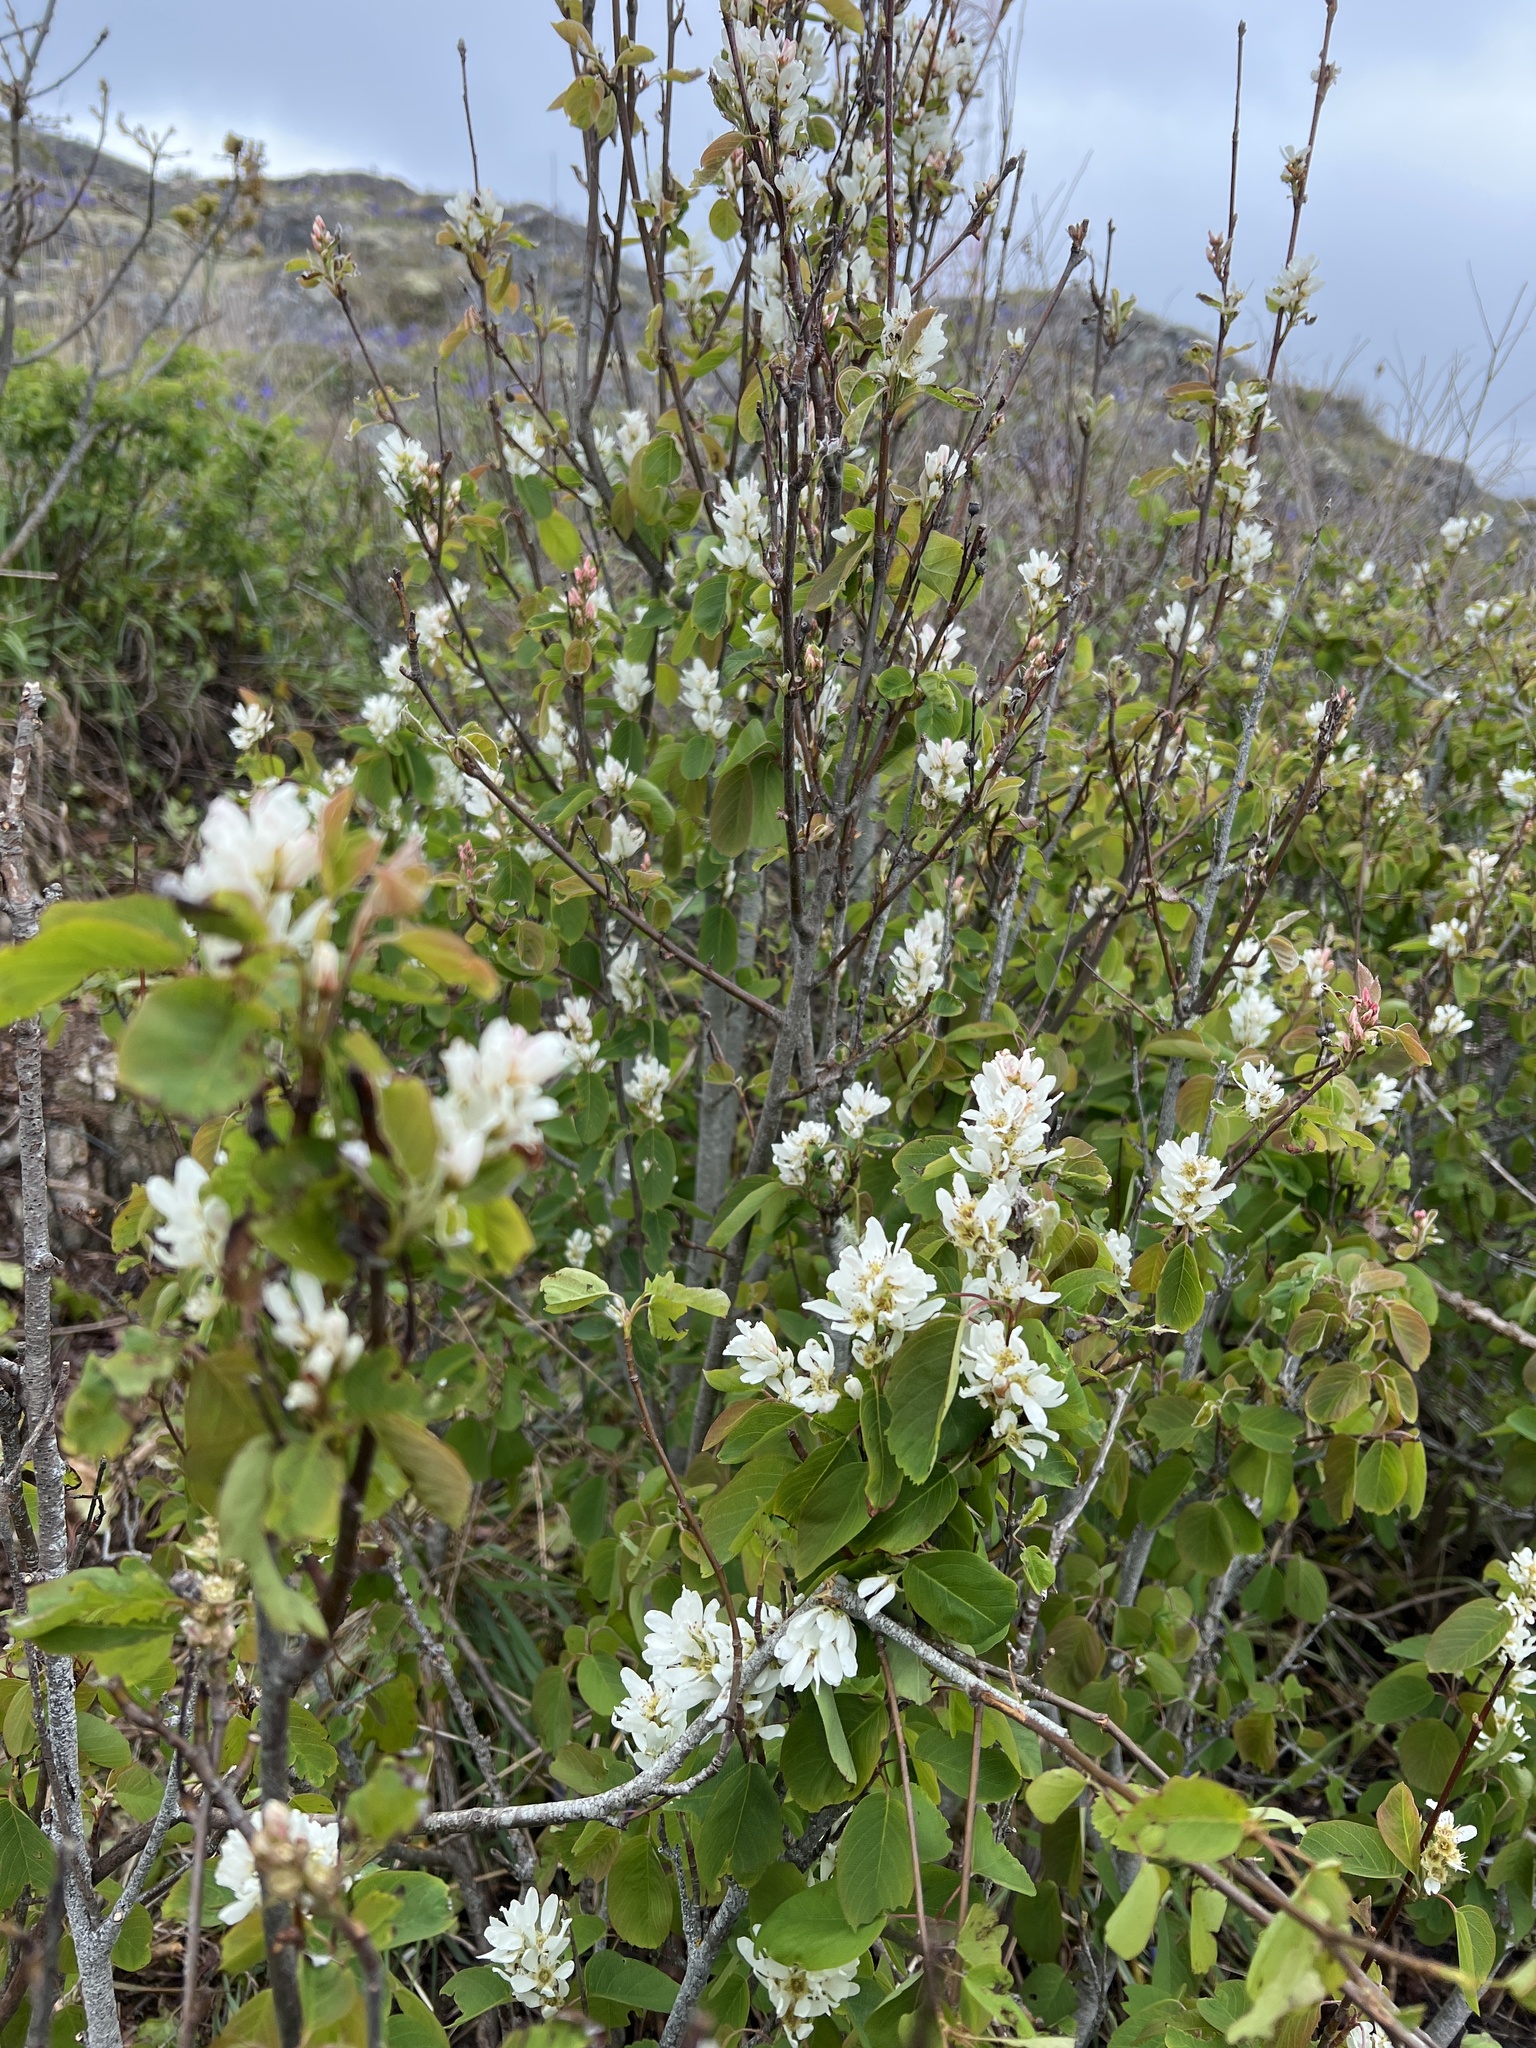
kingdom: Plantae
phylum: Tracheophyta
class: Magnoliopsida
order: Rosales
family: Rosaceae
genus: Amelanchier
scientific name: Amelanchier alnifolia
